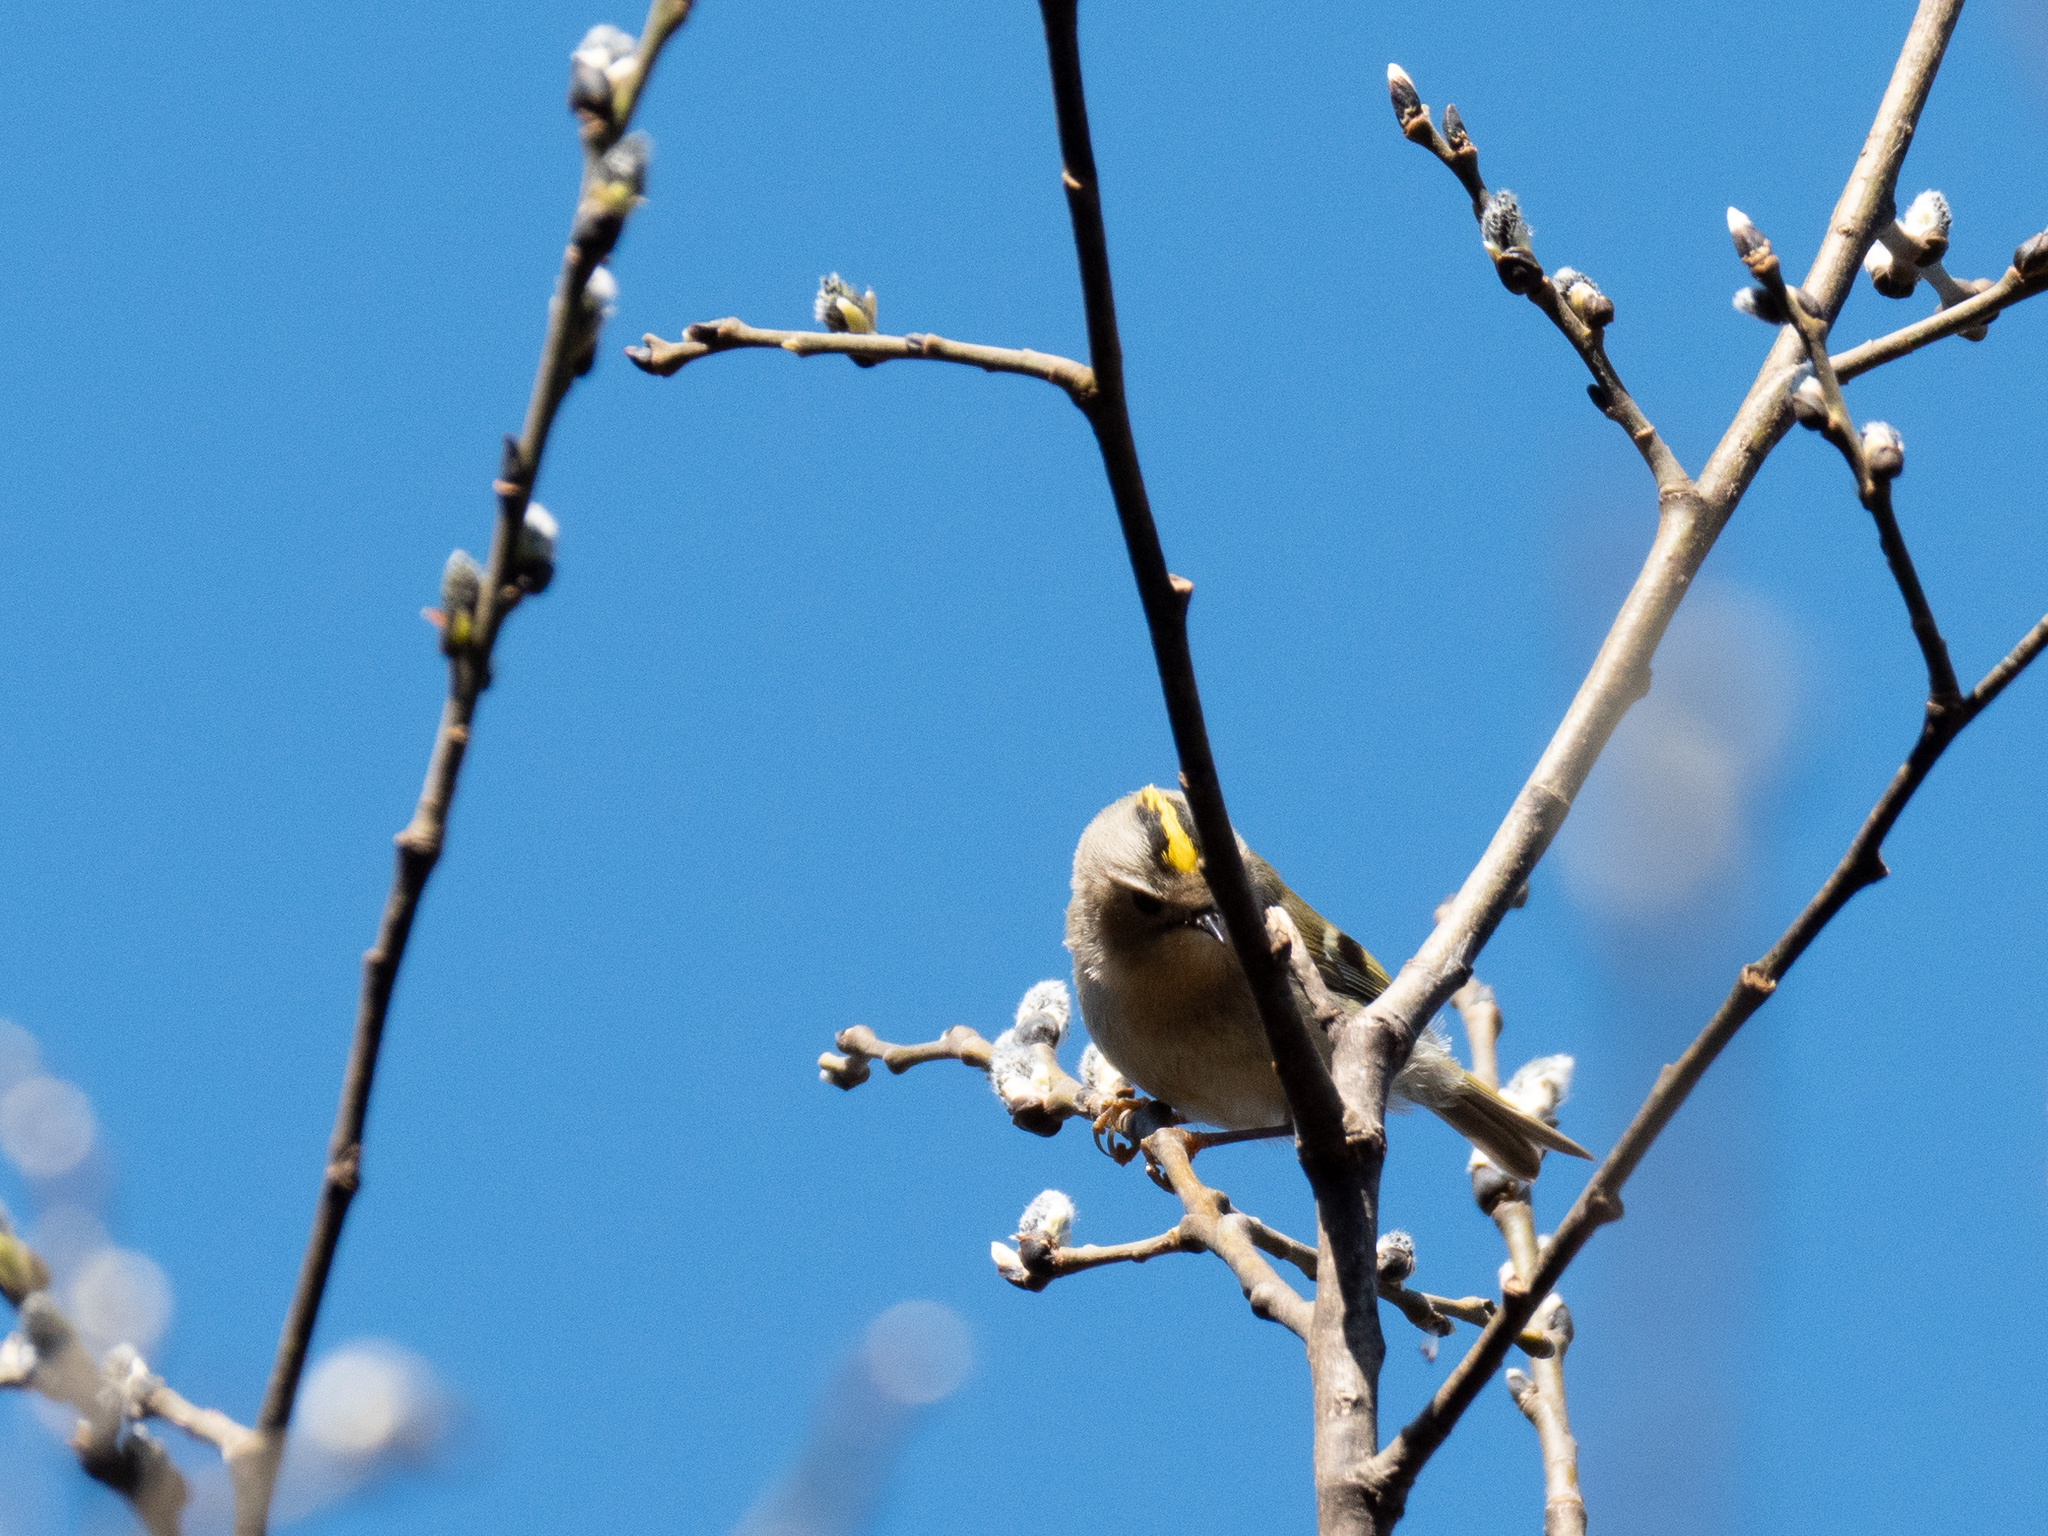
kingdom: Animalia
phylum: Chordata
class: Aves
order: Passeriformes
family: Regulidae
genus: Regulus
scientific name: Regulus regulus
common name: Goldcrest
